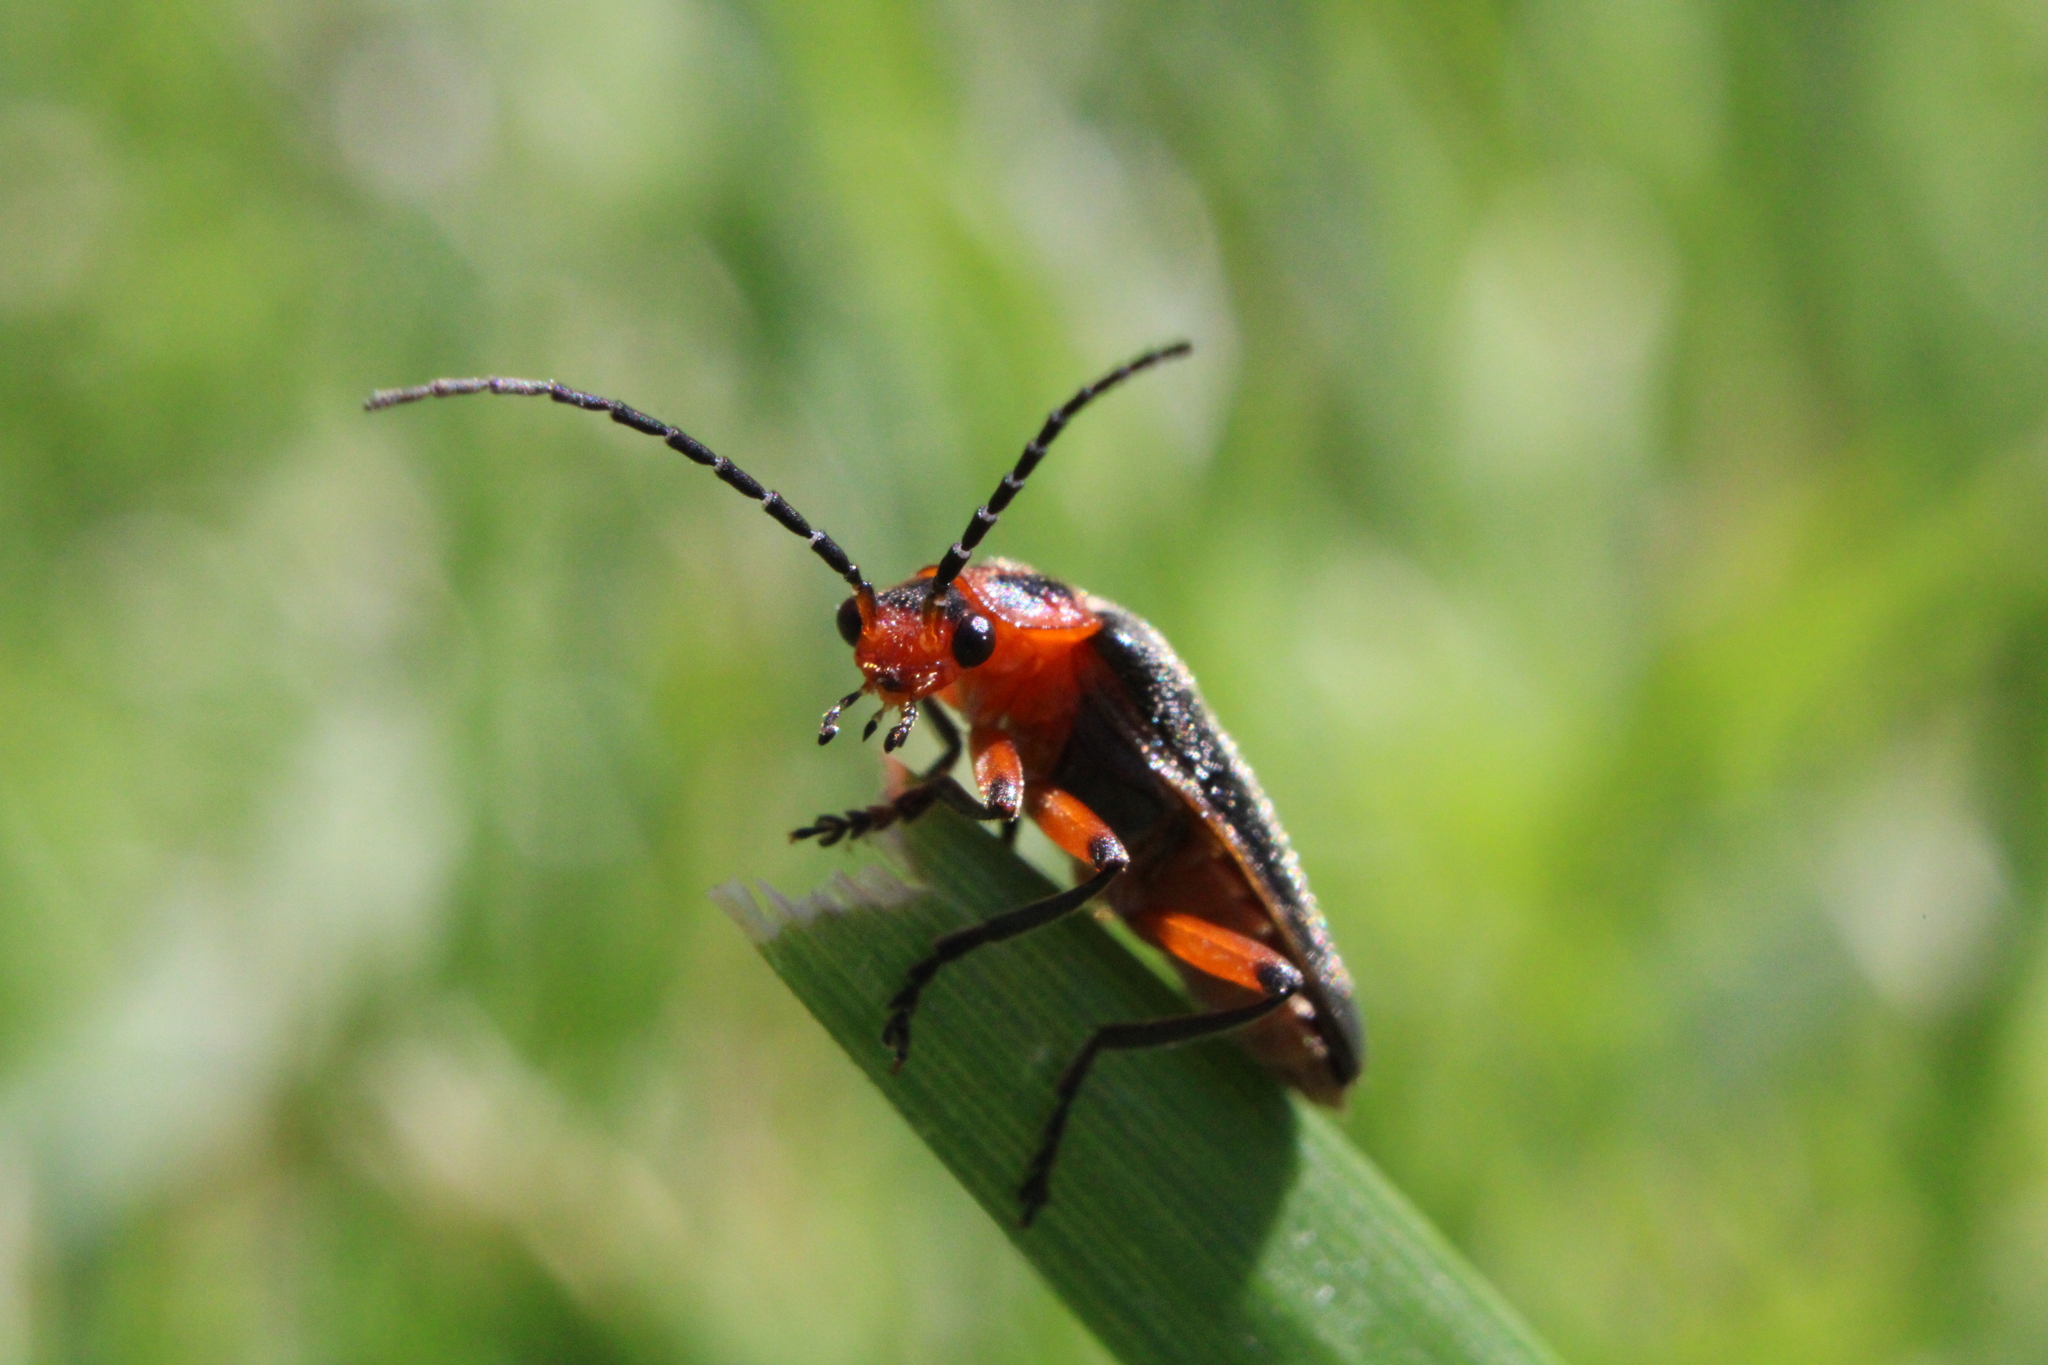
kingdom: Animalia
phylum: Arthropoda
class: Insecta
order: Coleoptera
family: Cantharidae
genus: Atalantycha
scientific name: Atalantycha bilineata
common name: Two-lined leatherwing
